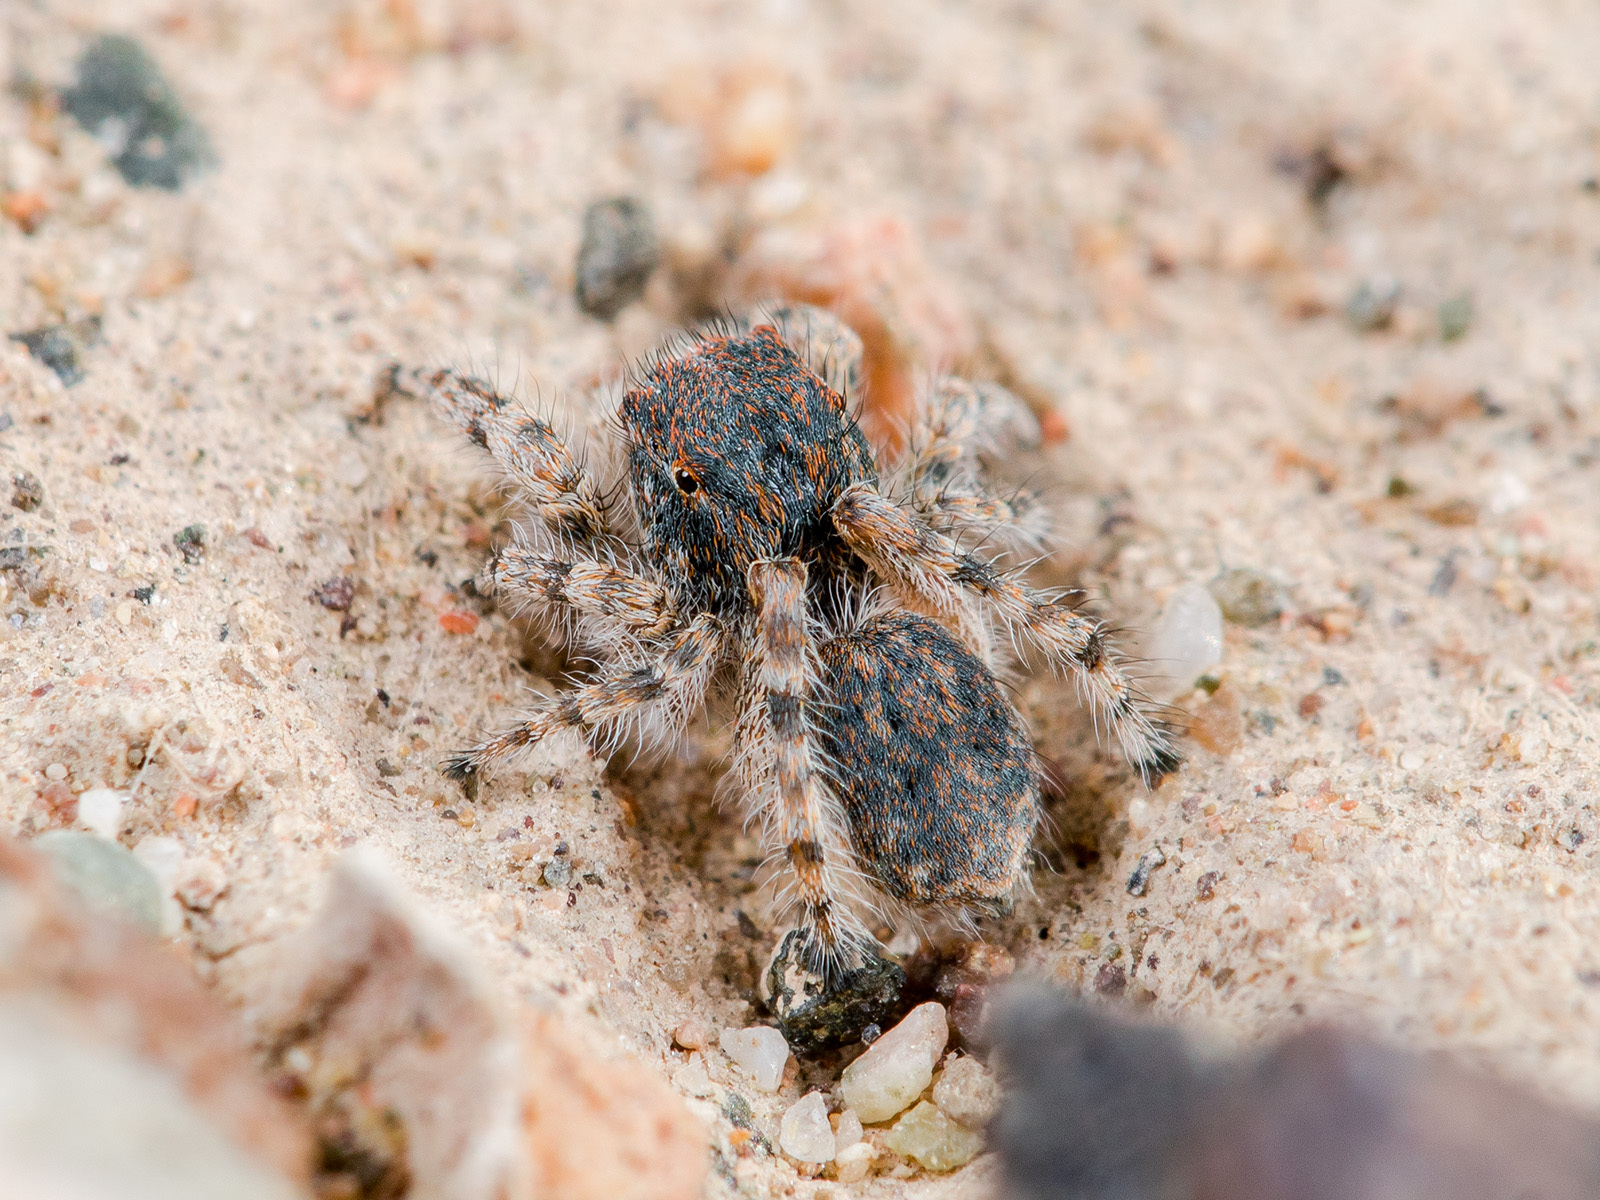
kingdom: Animalia
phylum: Arthropoda
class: Arachnida
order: Araneae
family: Salticidae
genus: Yllenus
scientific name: Yllenus zyuzini
